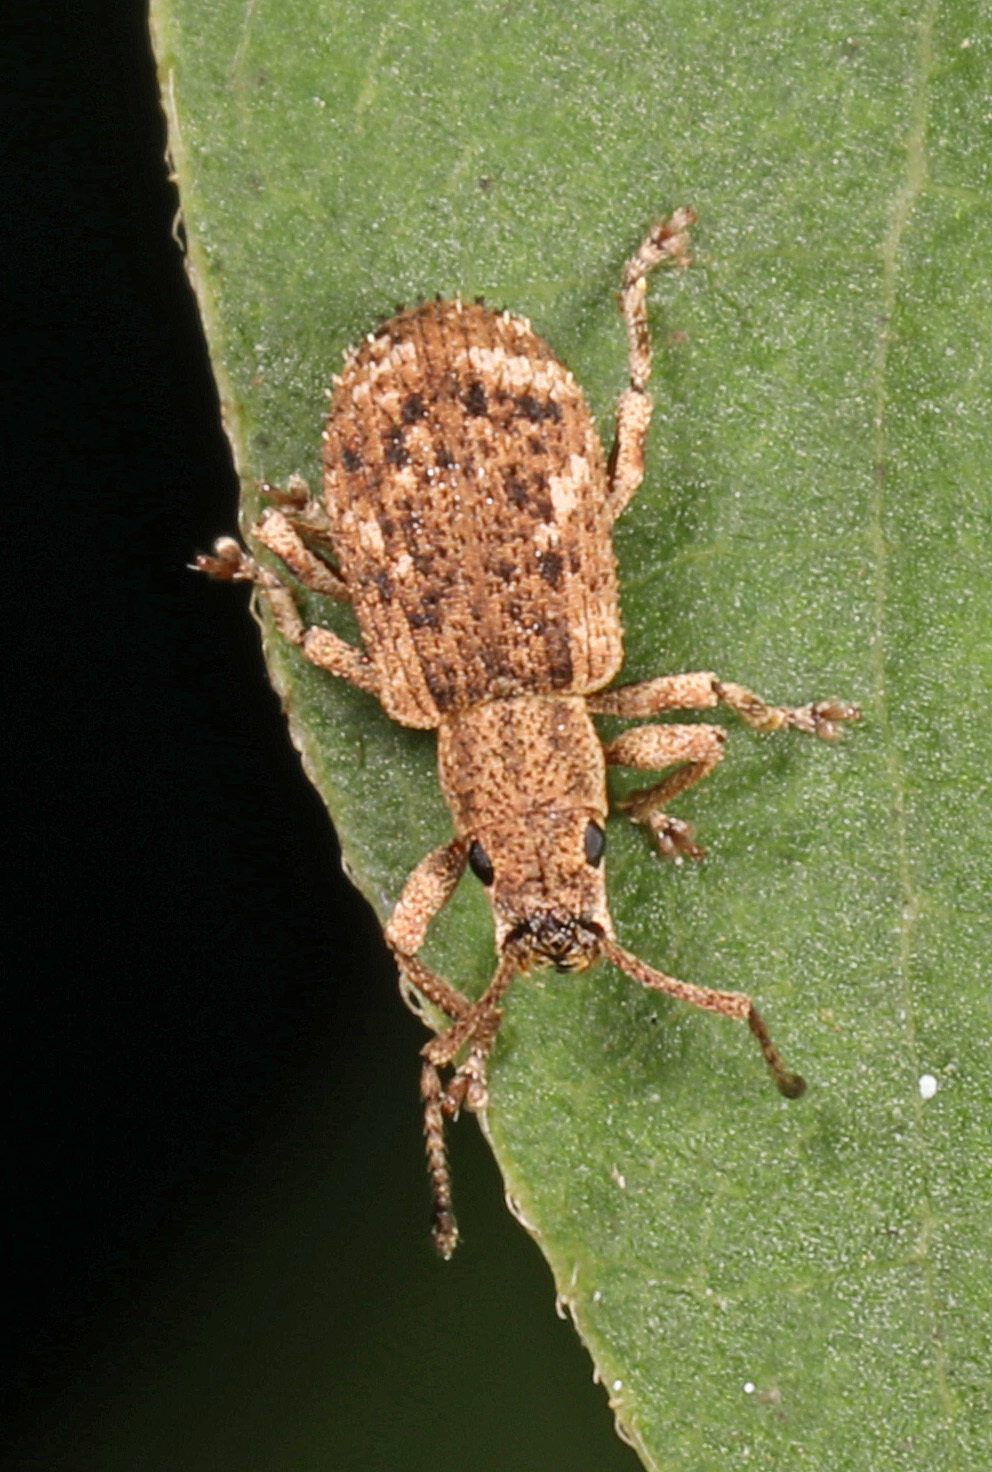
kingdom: Animalia
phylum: Arthropoda
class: Insecta
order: Coleoptera
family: Curculionidae
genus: Pseudoedophrys
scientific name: Pseudoedophrys hilleri
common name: Weevil
